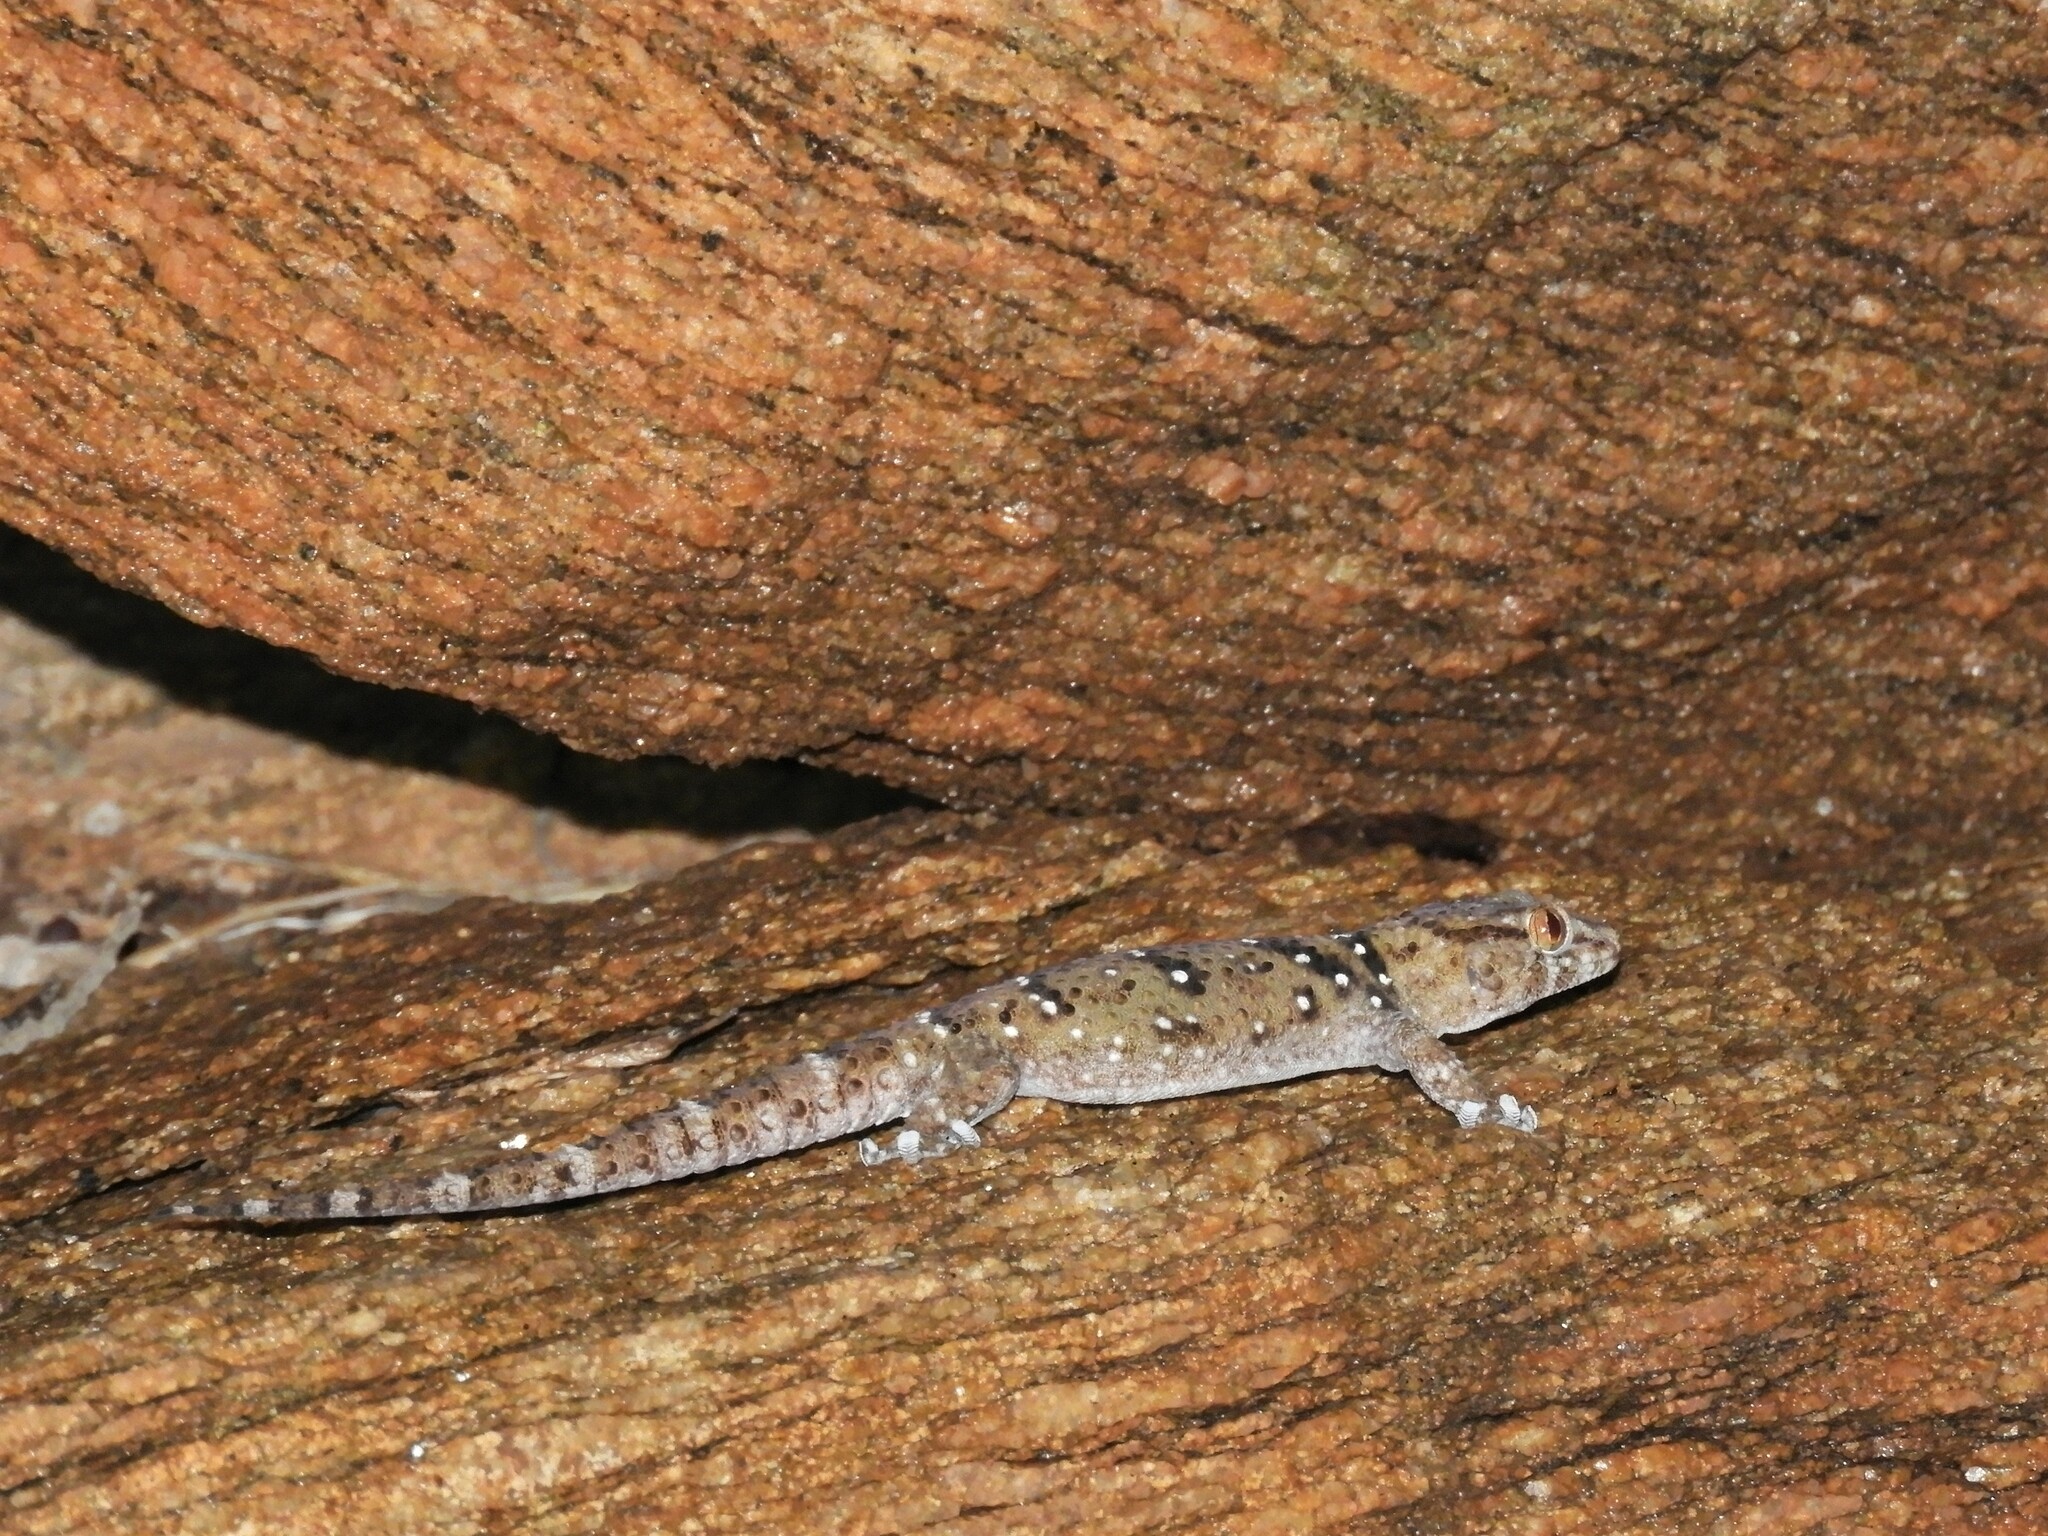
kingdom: Animalia
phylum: Chordata
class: Squamata
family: Gekkonidae
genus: Chondrodactylus
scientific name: Chondrodactylus laevigatus
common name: Fischer's thick-toed gecko
